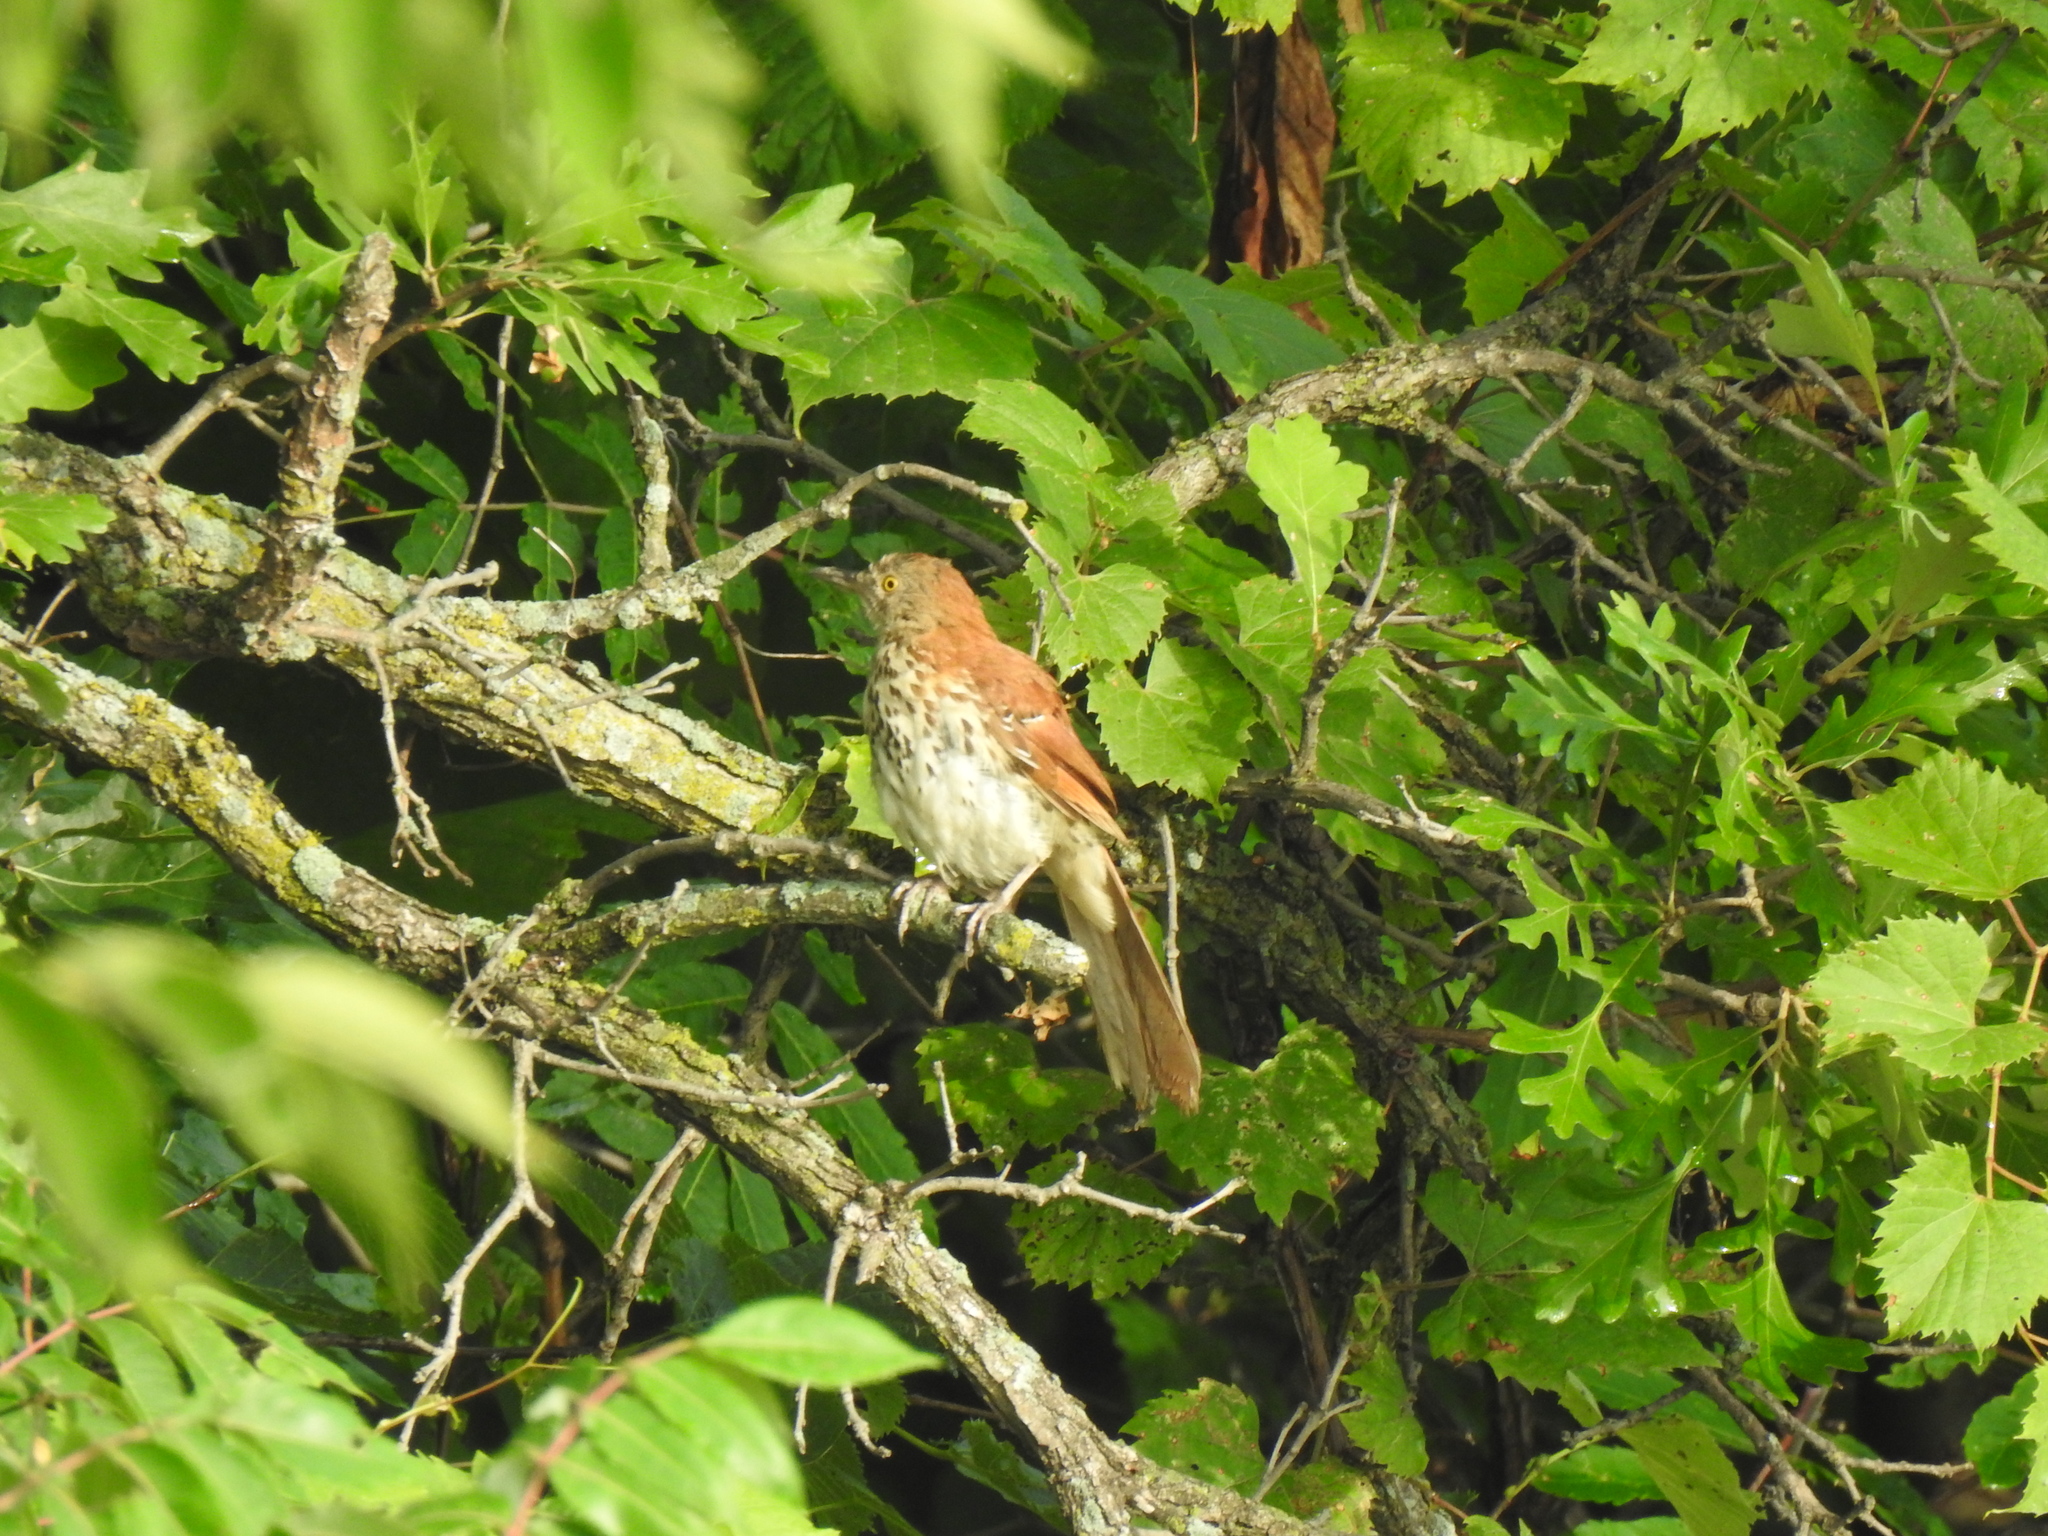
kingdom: Animalia
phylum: Chordata
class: Aves
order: Passeriformes
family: Mimidae
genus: Toxostoma
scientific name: Toxostoma rufum
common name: Brown thrasher
